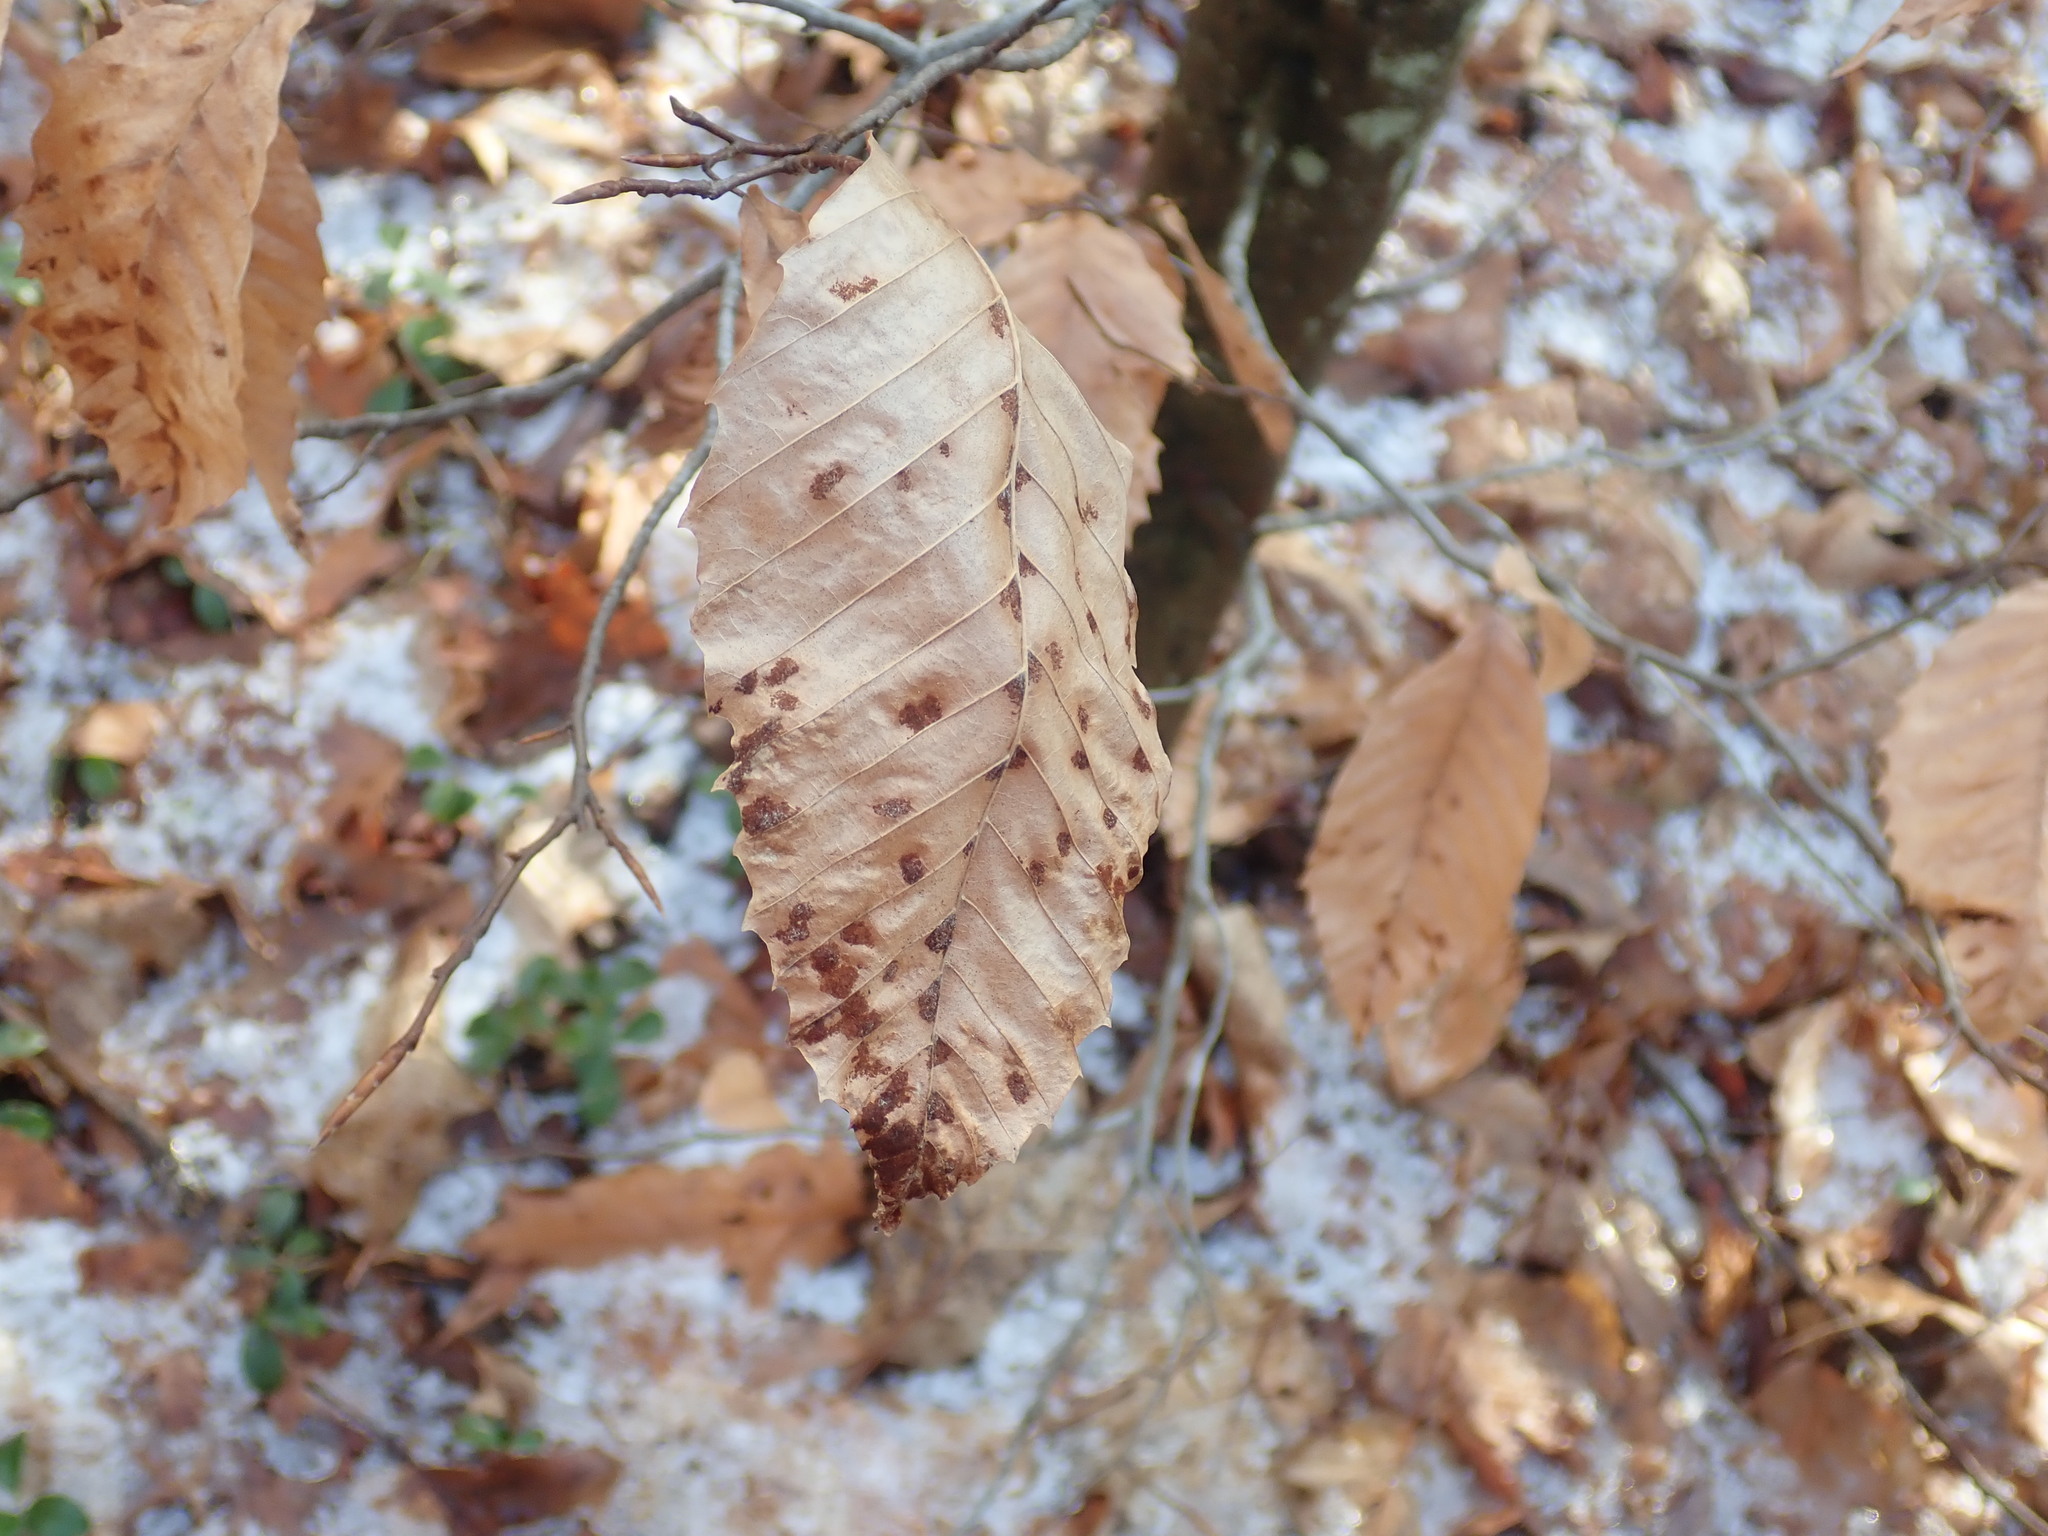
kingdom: Animalia
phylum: Arthropoda
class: Arachnida
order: Trombidiformes
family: Eriophyidae
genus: Acalitus
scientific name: Acalitus
